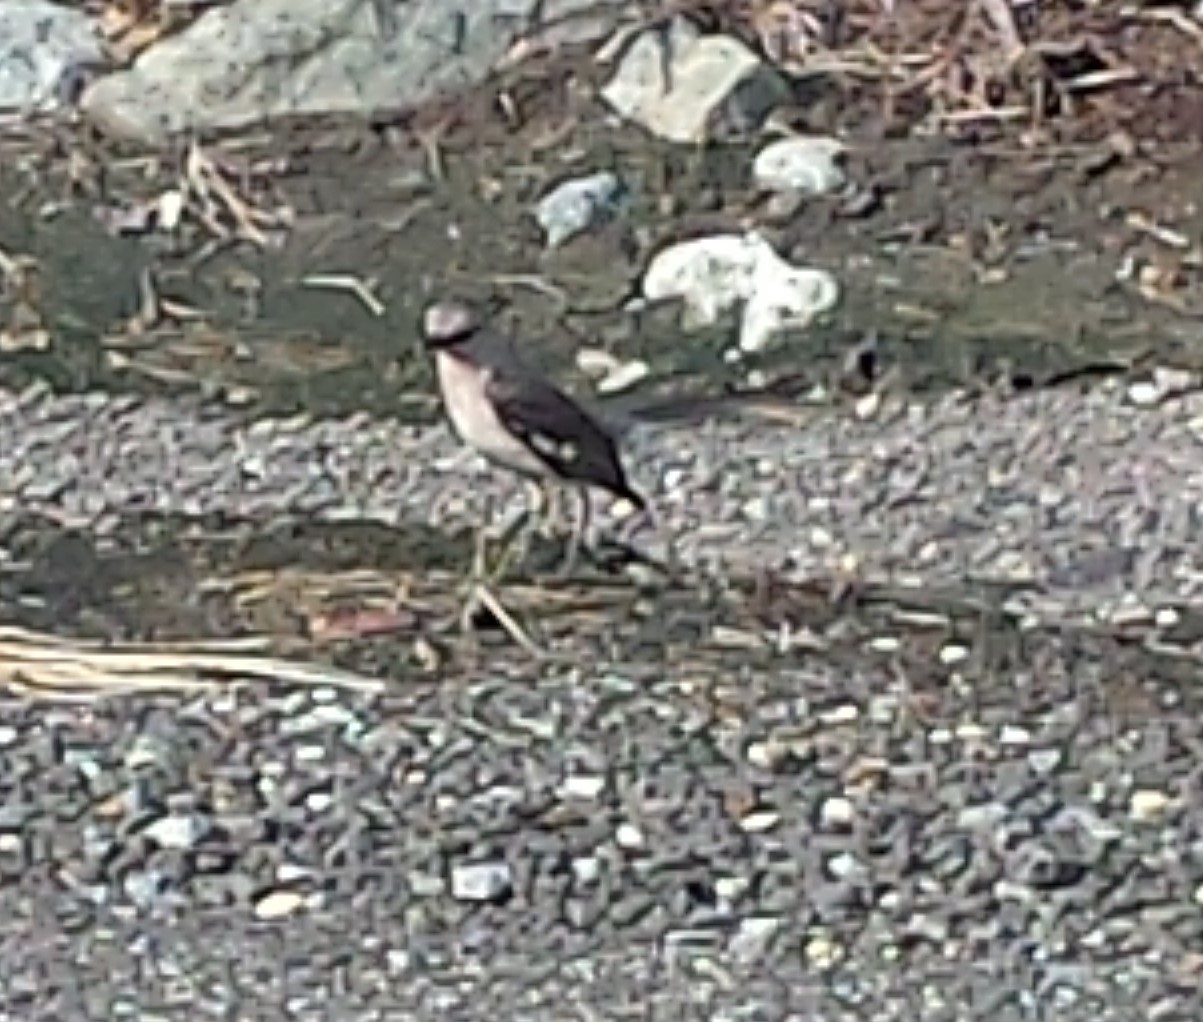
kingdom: Animalia
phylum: Chordata
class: Aves
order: Passeriformes
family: Mimidae
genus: Mimus
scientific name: Mimus polyglottos
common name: Northern mockingbird
